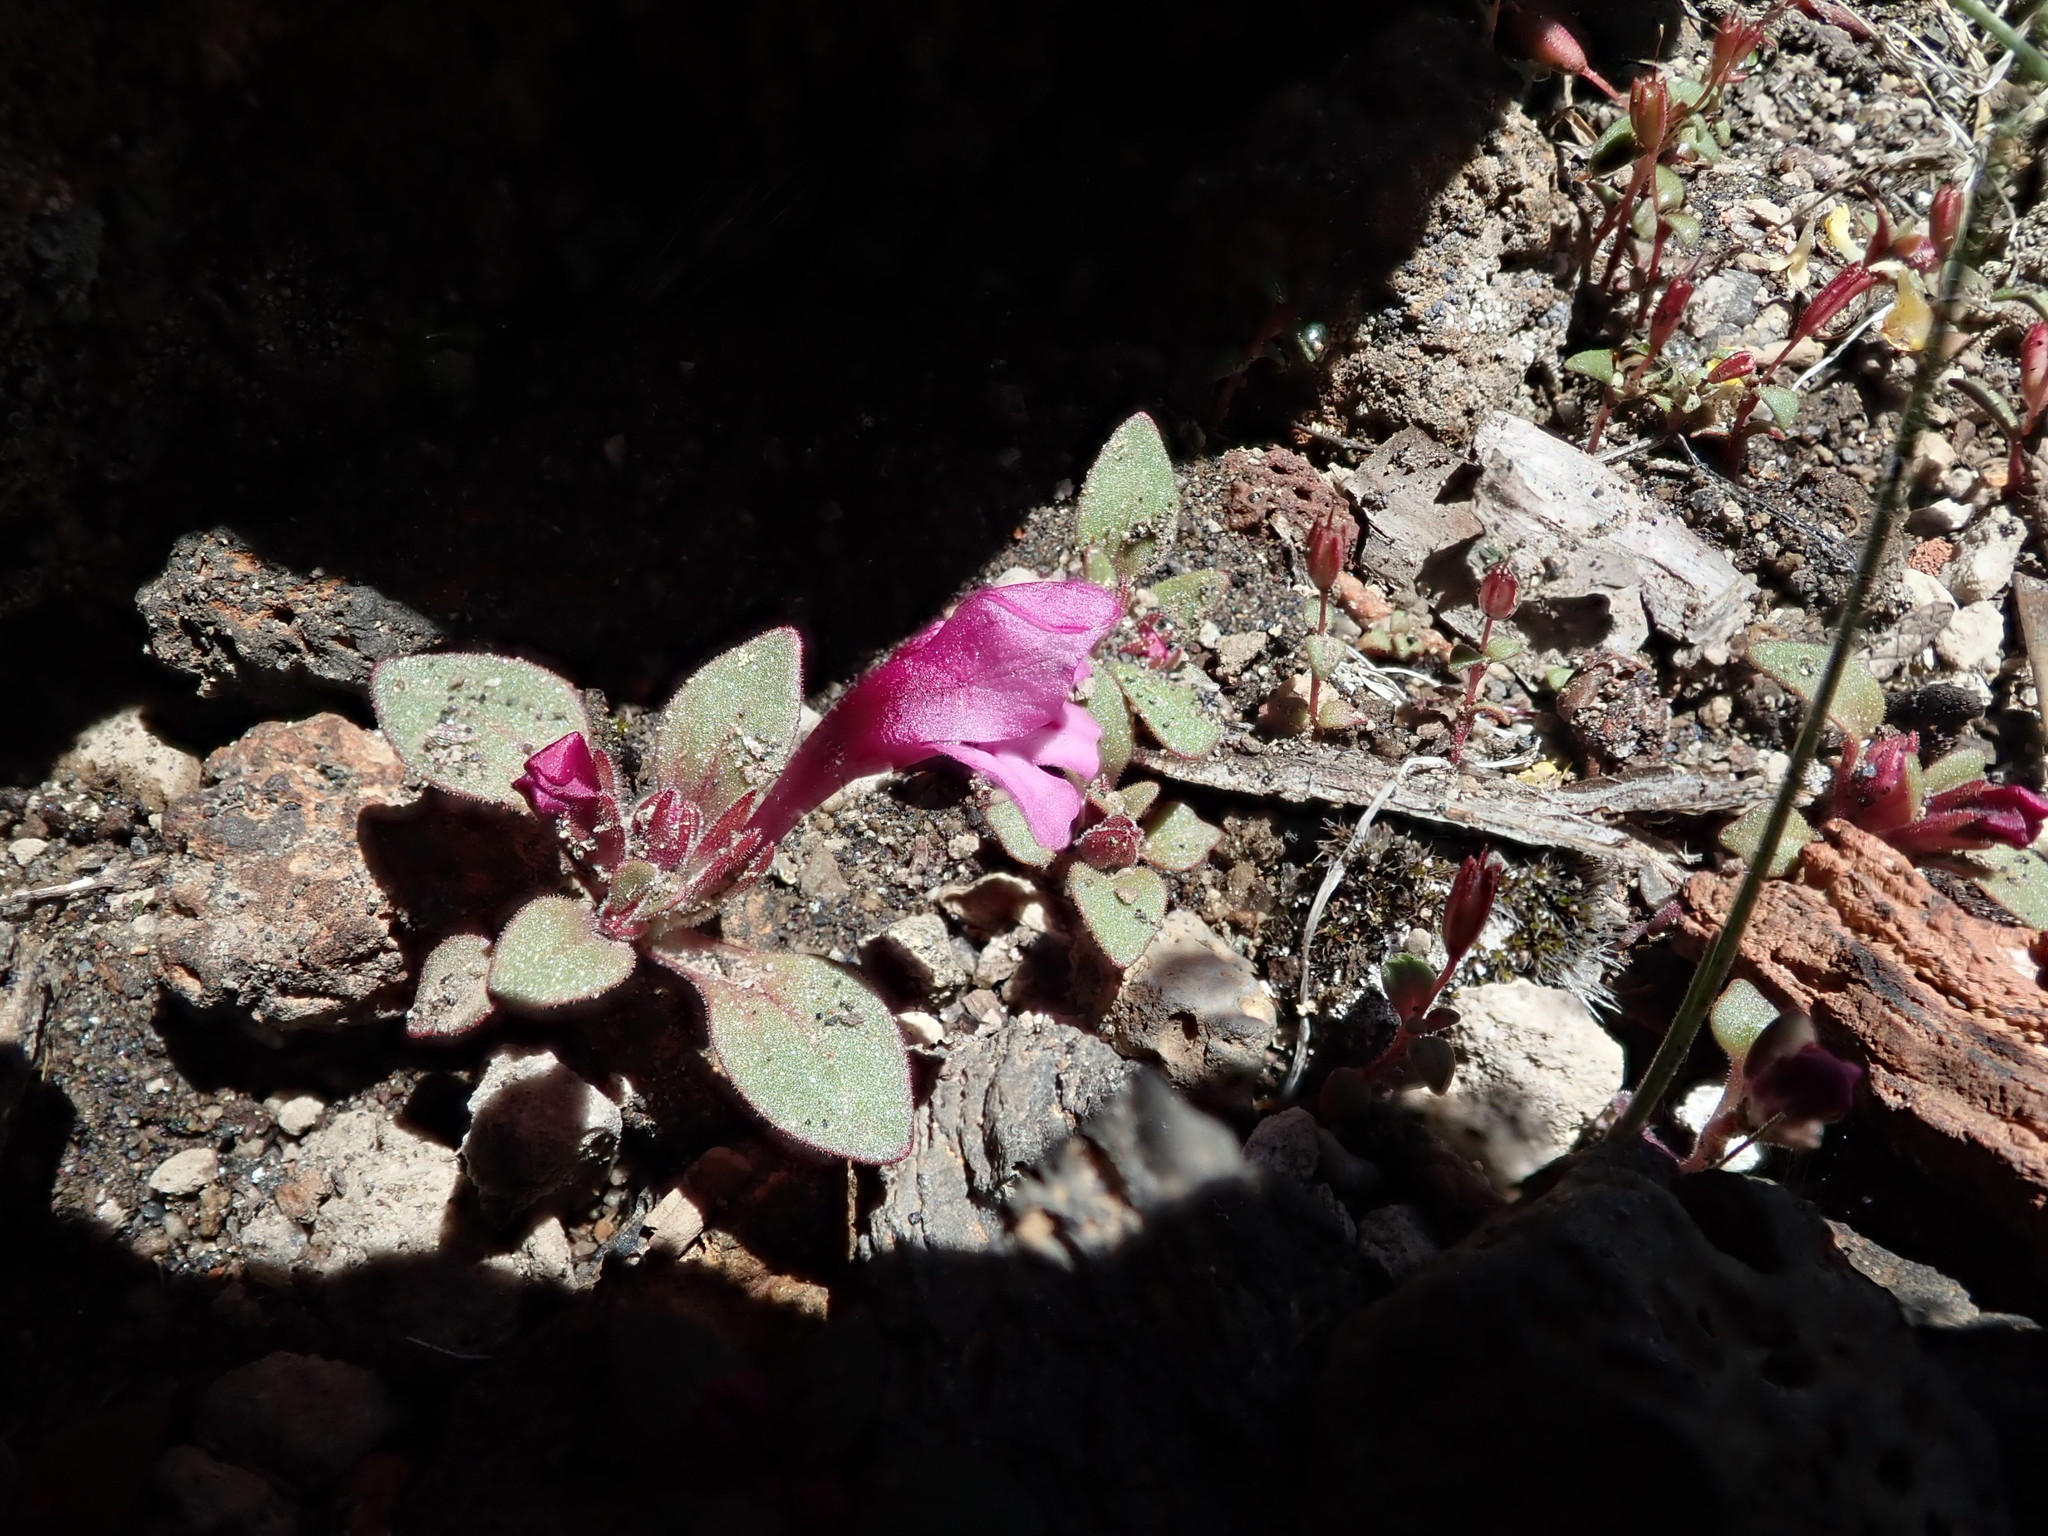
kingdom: Plantae
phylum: Tracheophyta
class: Magnoliopsida
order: Lamiales
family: Phrymaceae
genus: Diplacus
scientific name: Diplacus nanus
